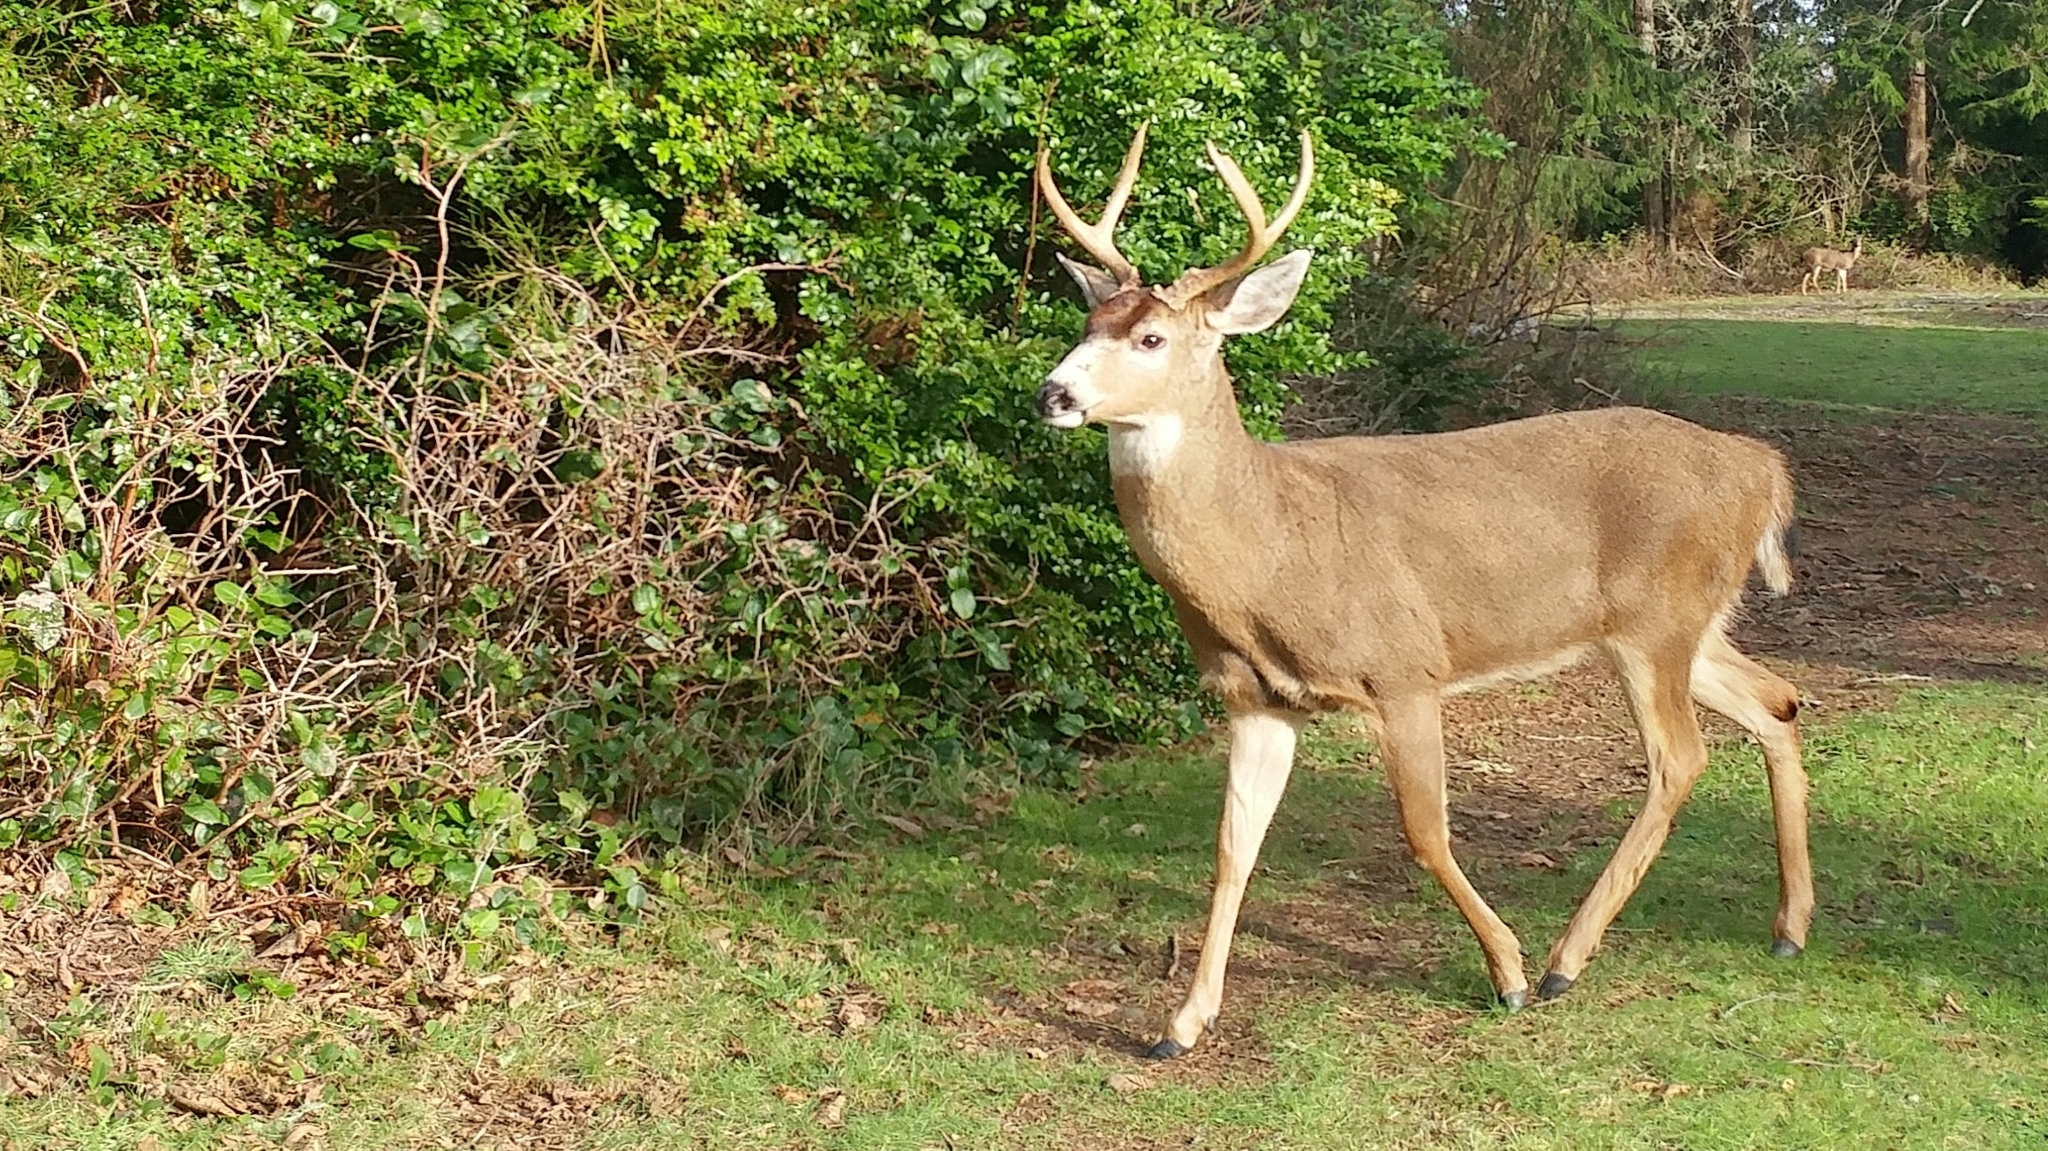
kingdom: Animalia
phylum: Chordata
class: Mammalia
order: Artiodactyla
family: Cervidae
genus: Odocoileus
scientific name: Odocoileus hemionus
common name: Mule deer
